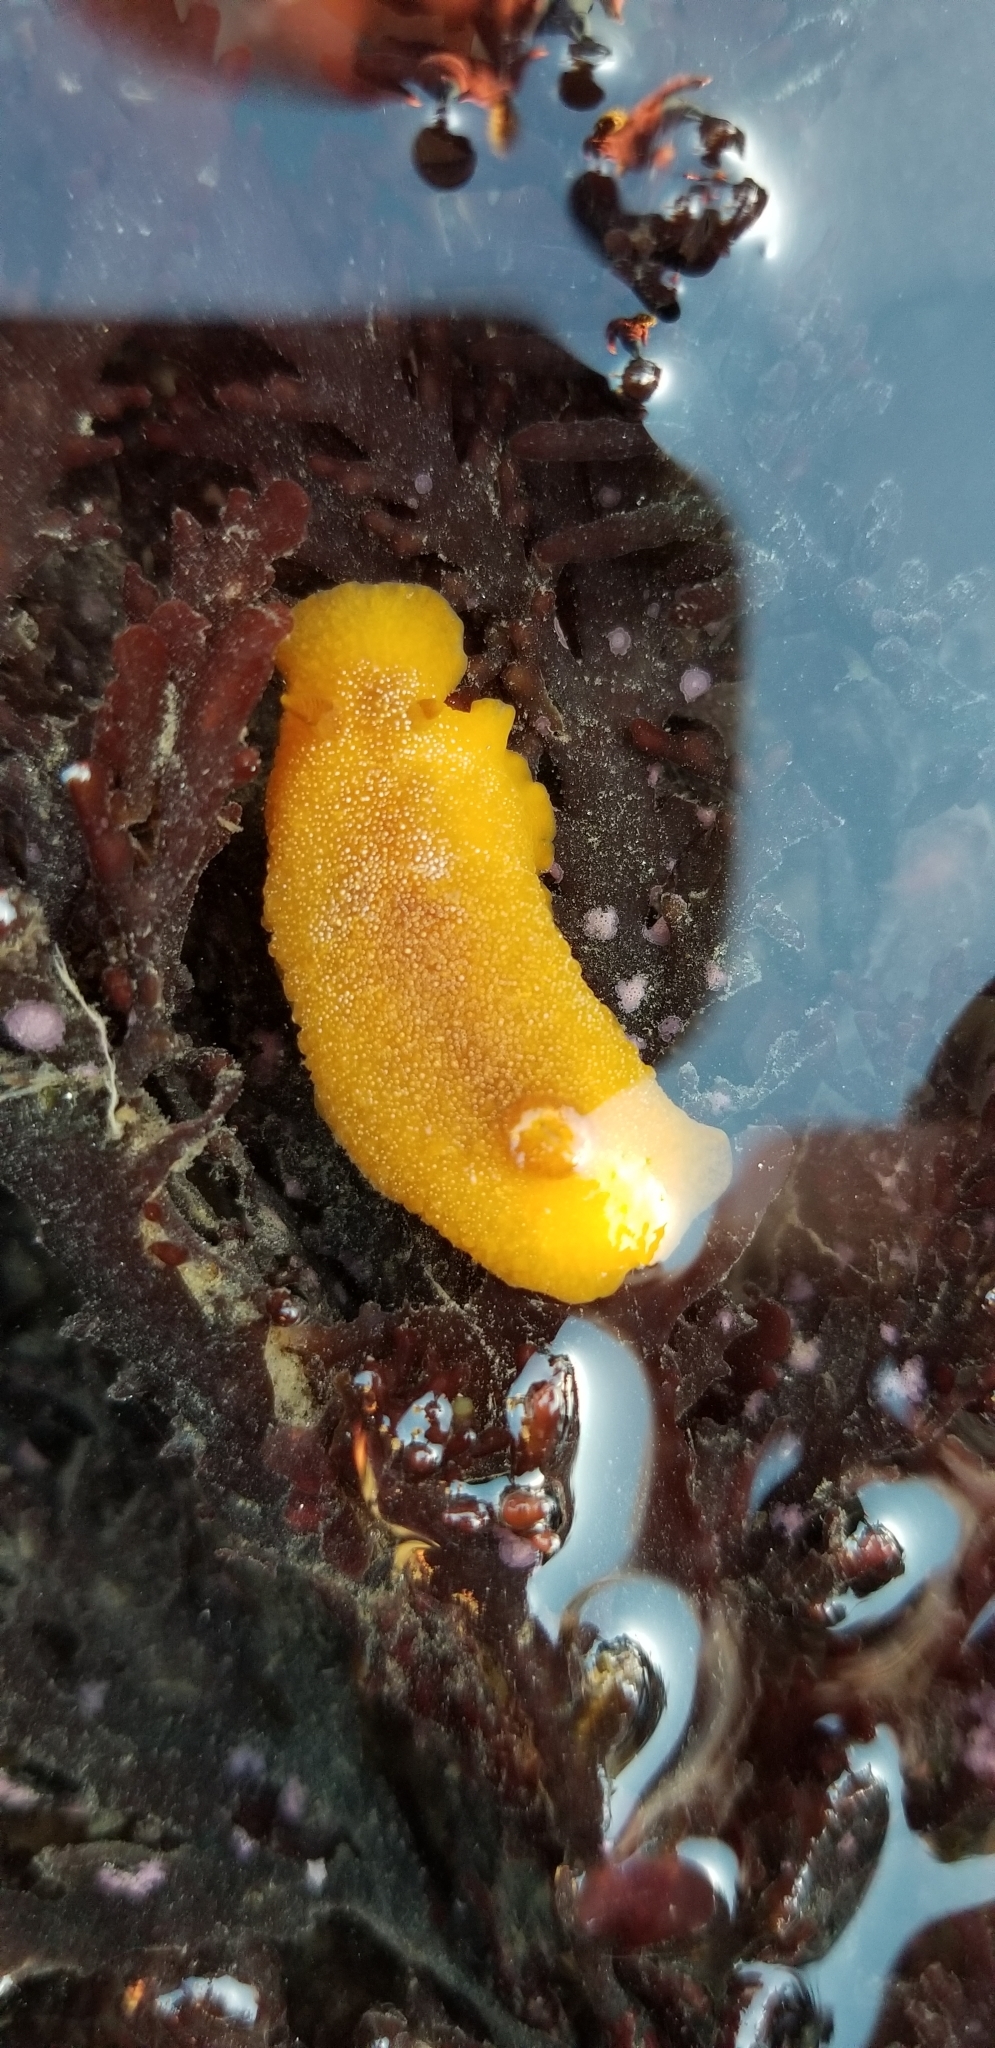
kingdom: Animalia
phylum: Mollusca
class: Gastropoda
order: Nudibranchia
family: Dendrodorididae
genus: Doriopsilla
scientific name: Doriopsilla albopunctata
